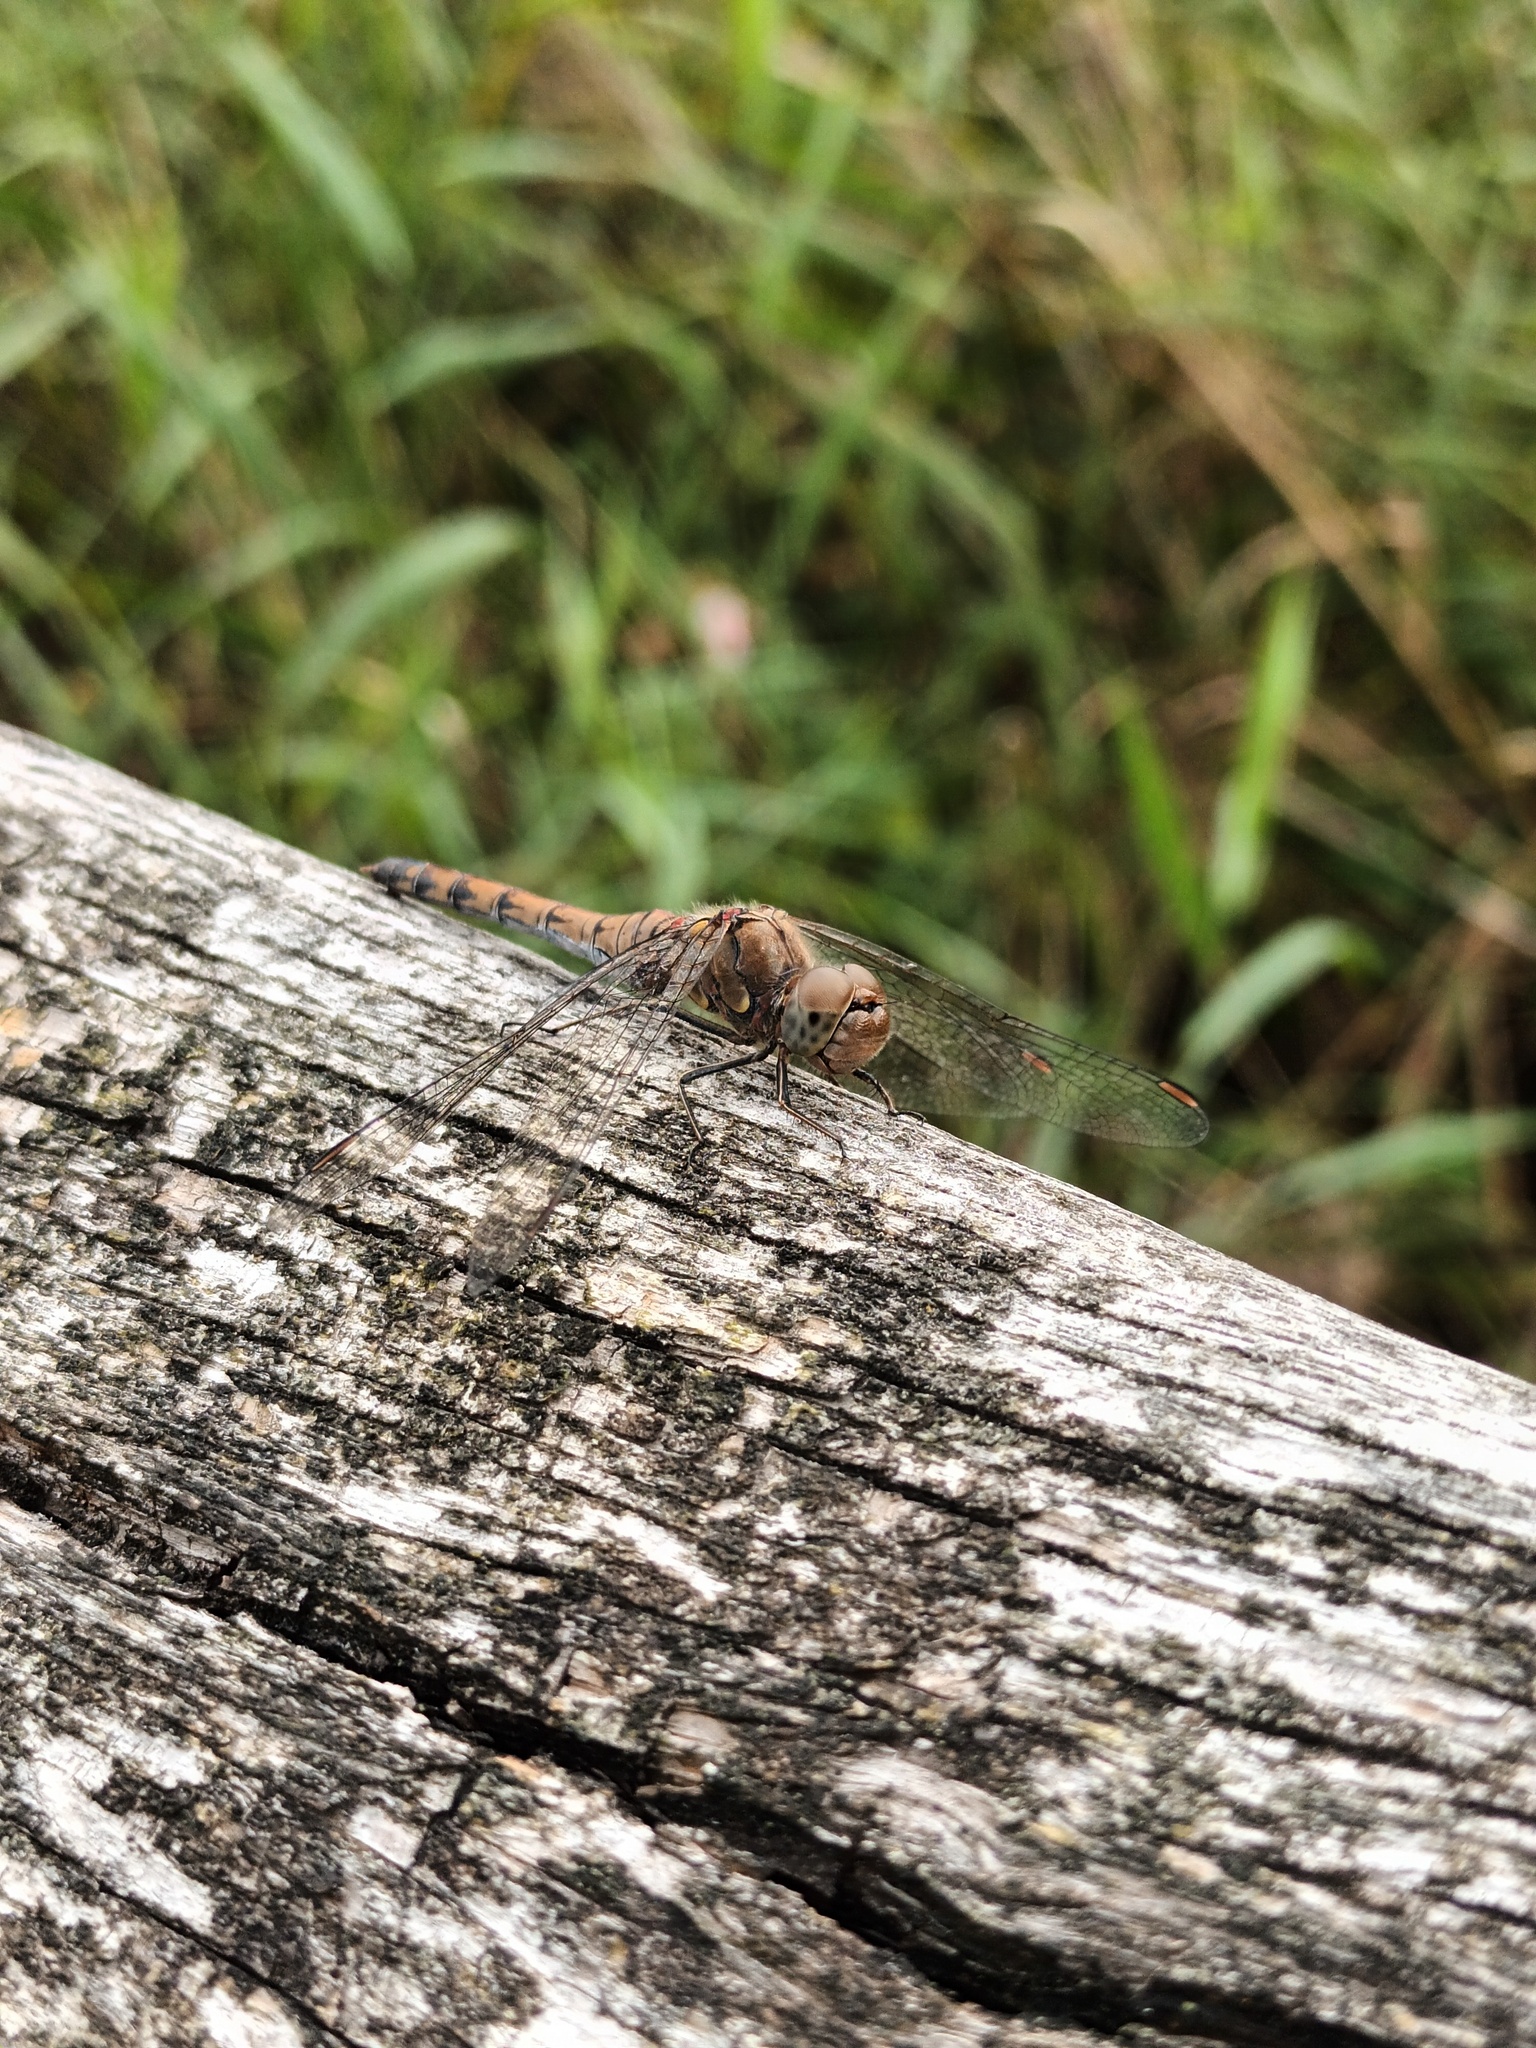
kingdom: Animalia
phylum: Arthropoda
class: Insecta
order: Odonata
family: Libellulidae
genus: Sympetrum
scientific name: Sympetrum striolatum
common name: Common darter
